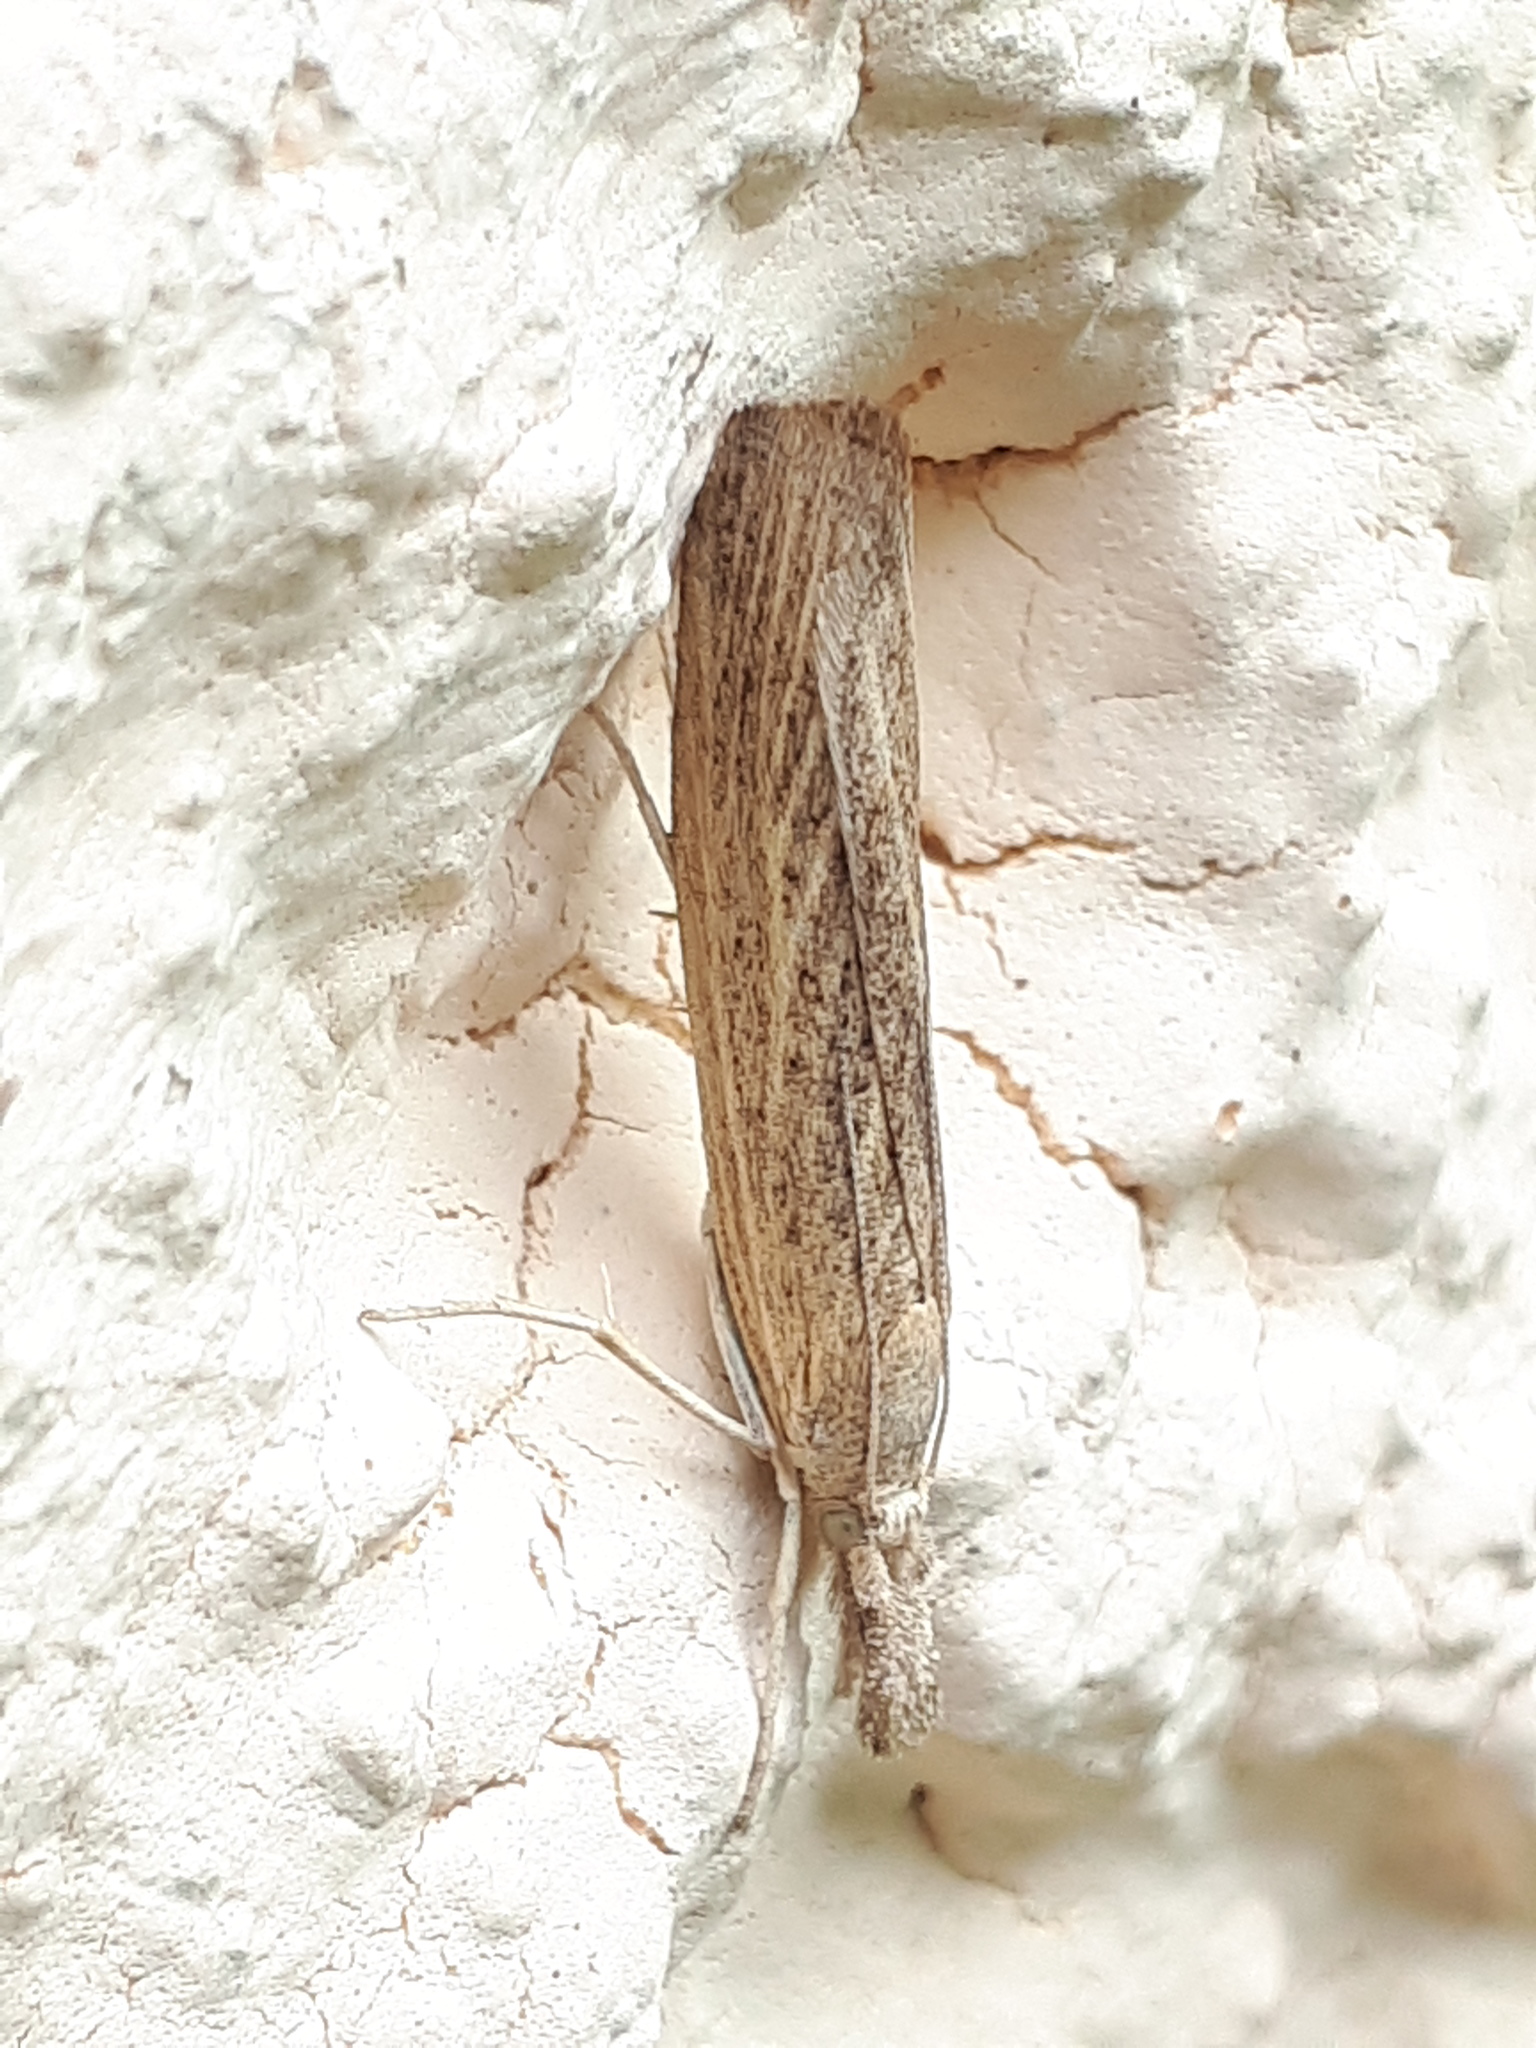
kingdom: Animalia
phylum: Arthropoda
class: Insecta
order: Lepidoptera
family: Crambidae
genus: Pediasia
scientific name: Pediasia luteella
